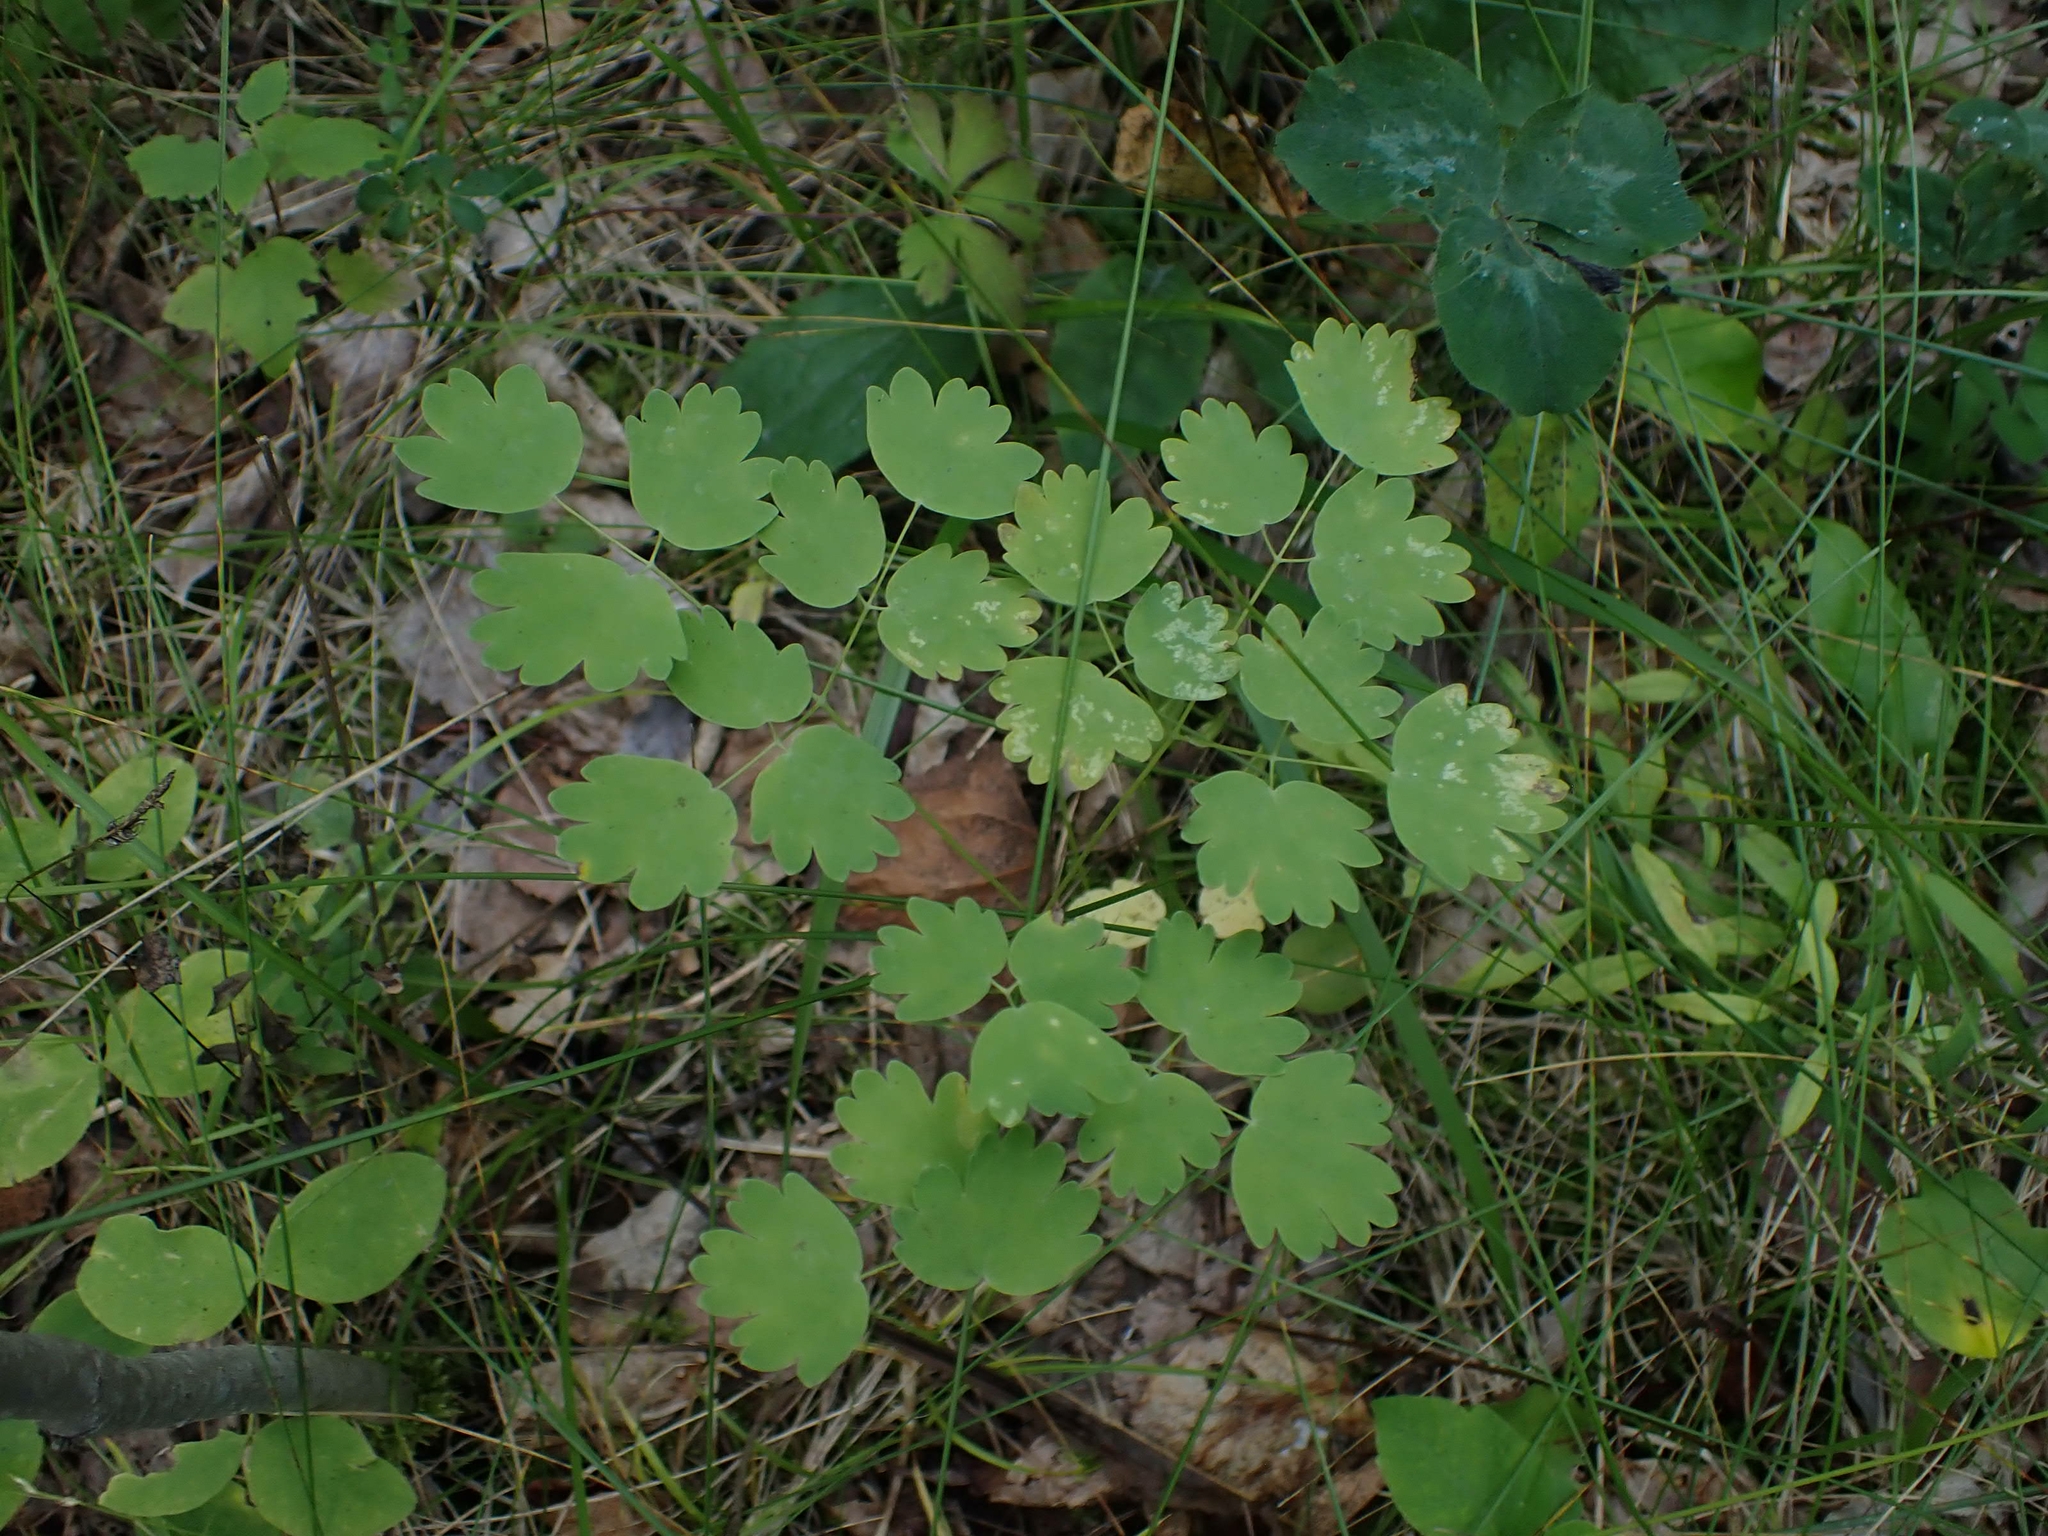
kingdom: Plantae
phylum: Tracheophyta
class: Magnoliopsida
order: Ranunculales
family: Ranunculaceae
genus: Thalictrum
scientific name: Thalictrum venulosum
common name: Early meadow-rue
